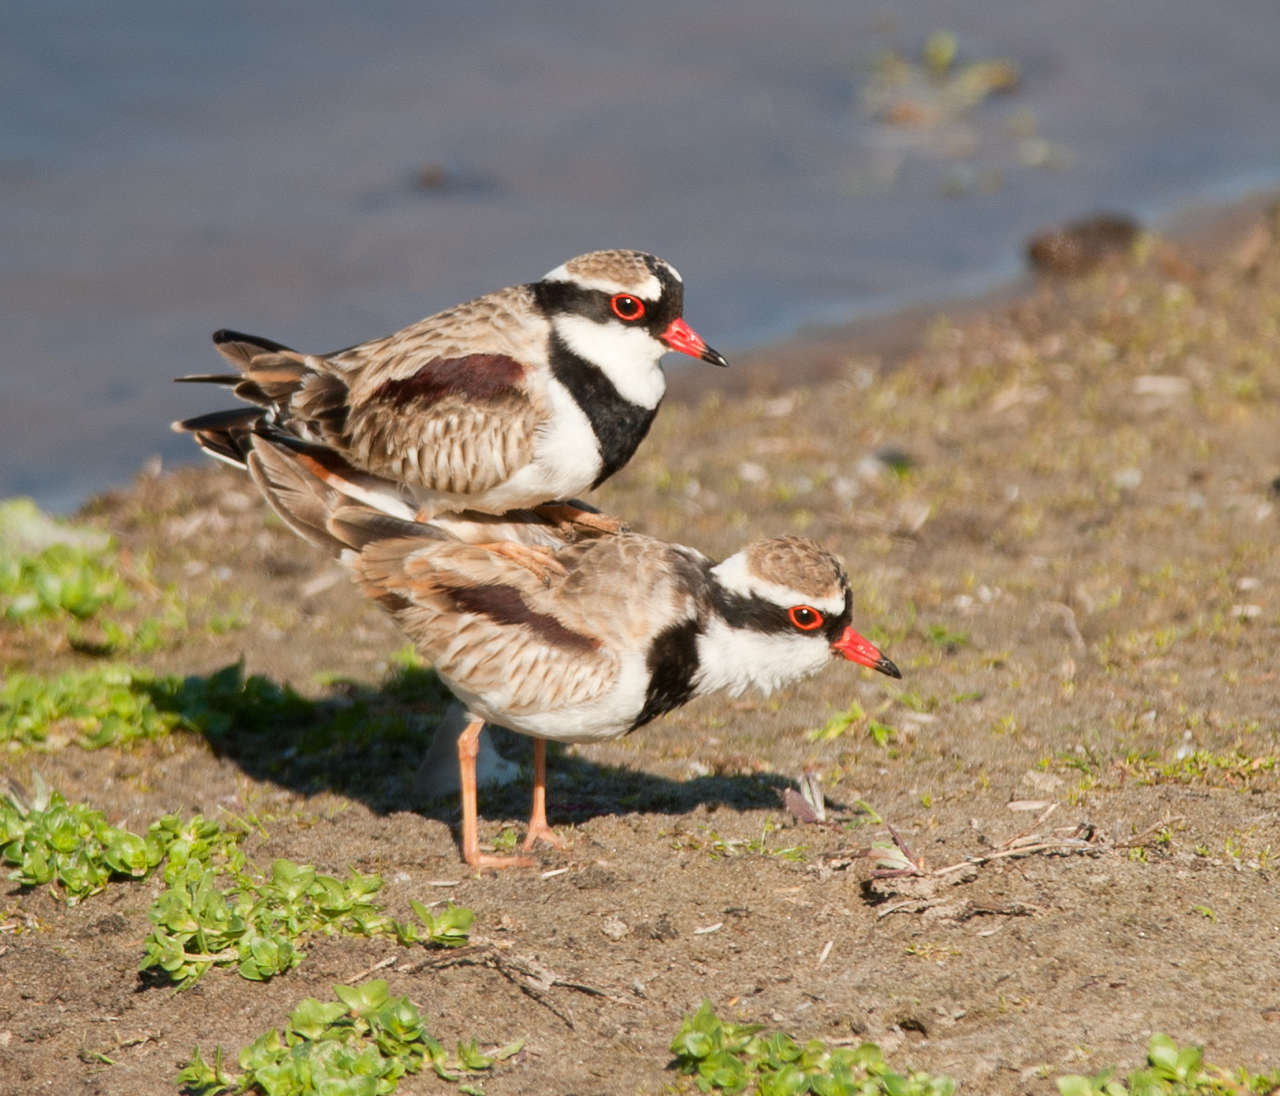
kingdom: Animalia
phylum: Chordata
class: Aves
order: Charadriiformes
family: Charadriidae
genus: Elseyornis
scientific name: Elseyornis melanops
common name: Black-fronted dotterel
